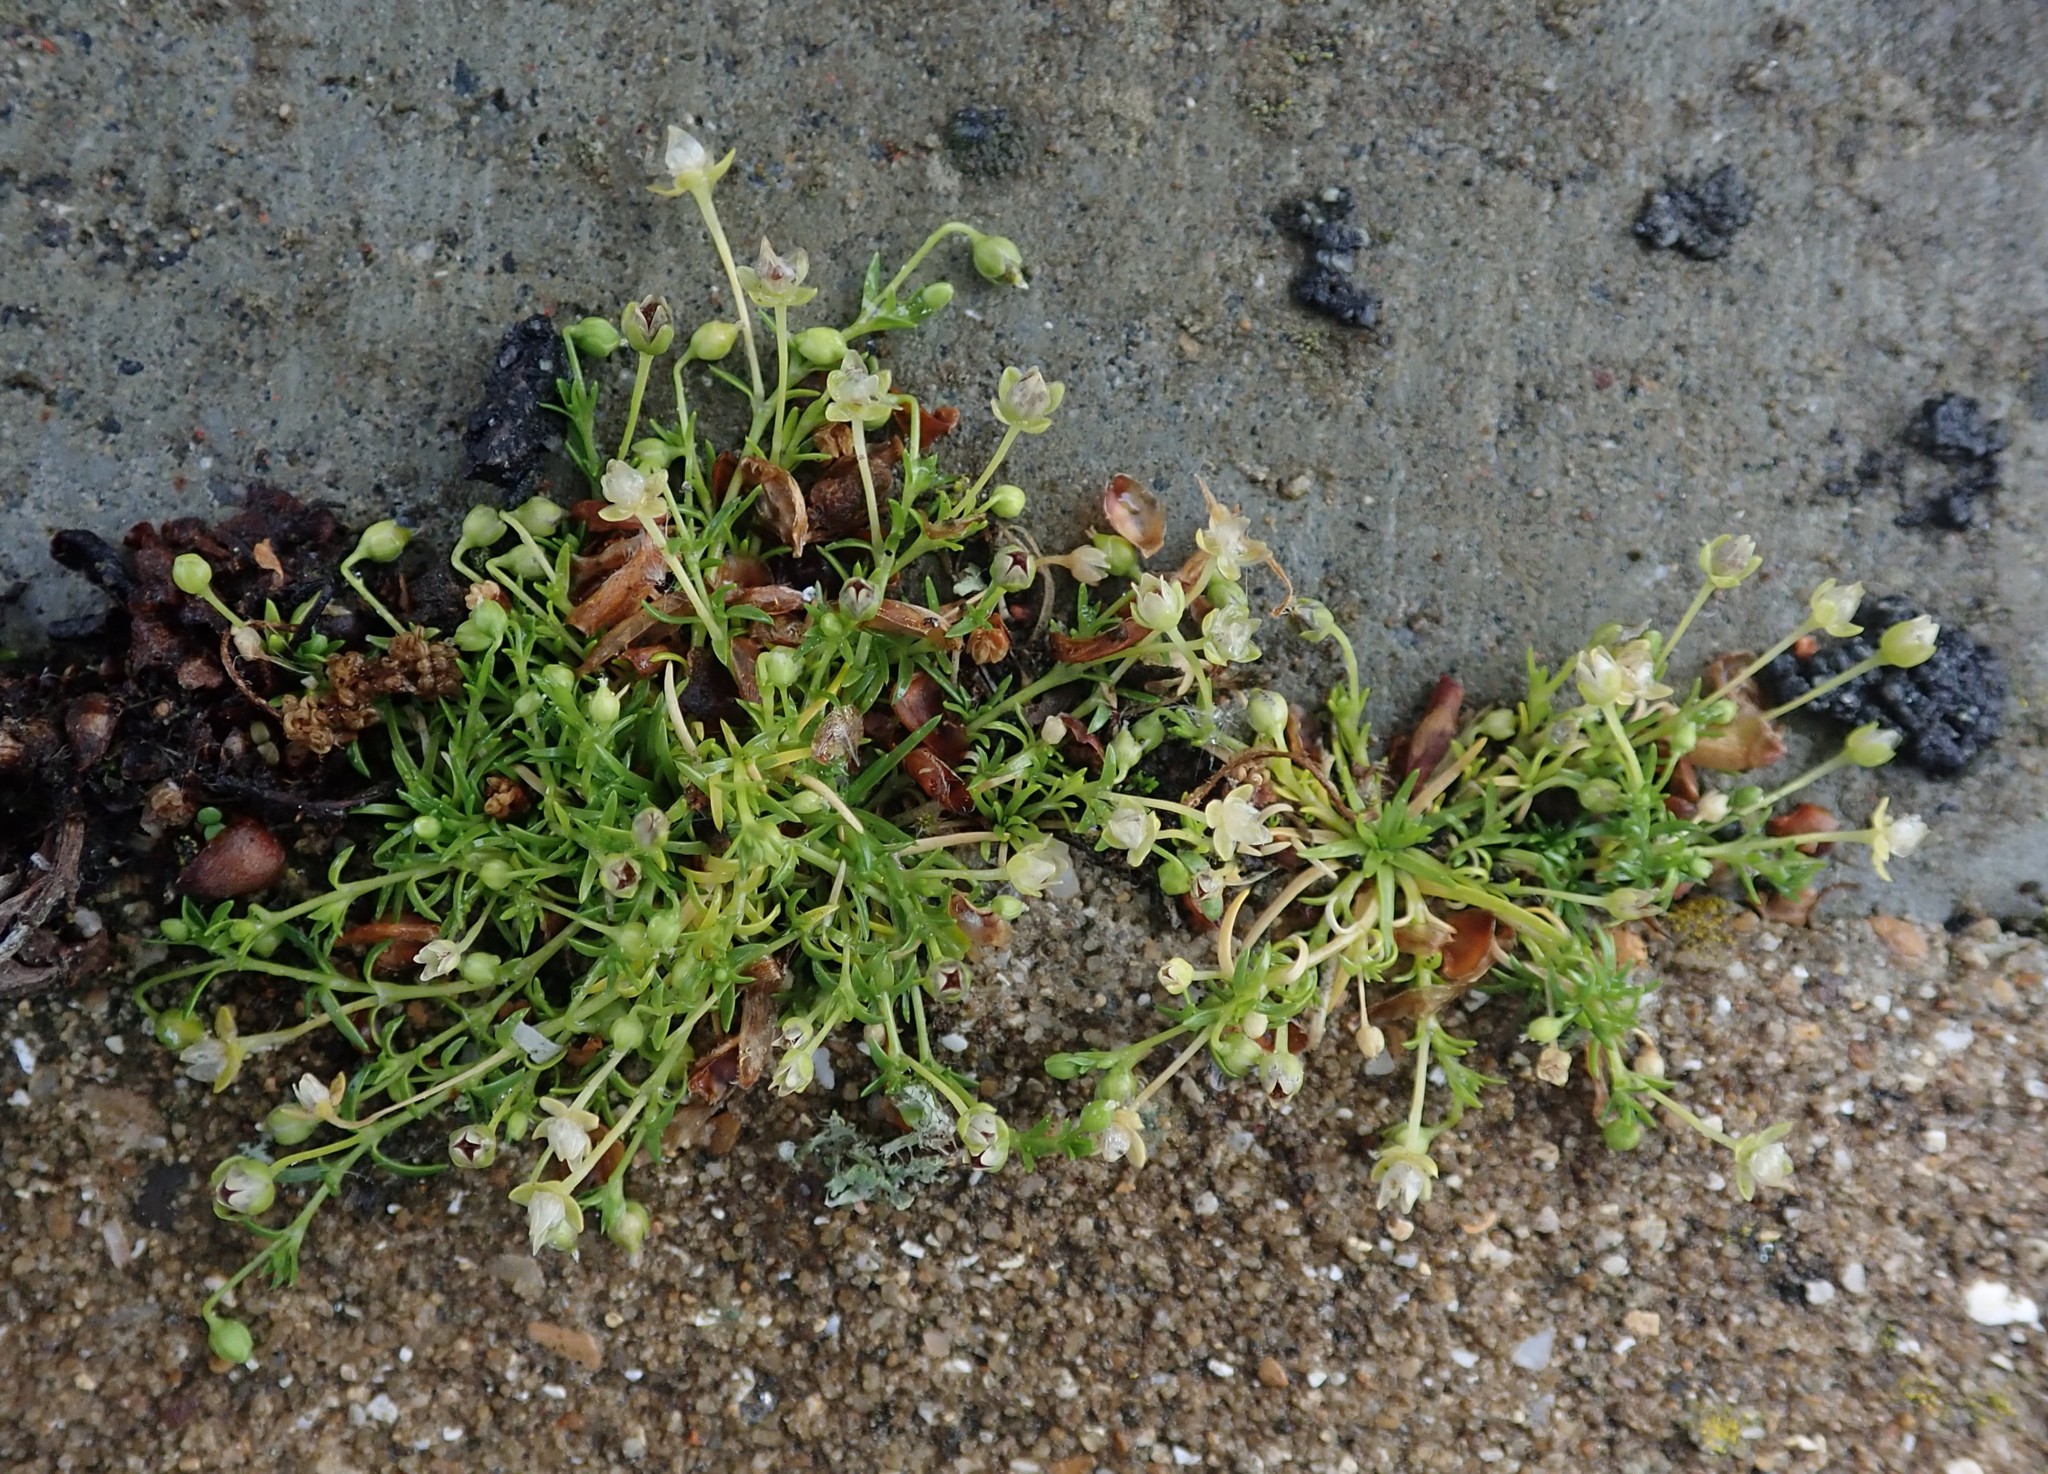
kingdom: Plantae
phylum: Tracheophyta
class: Magnoliopsida
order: Caryophyllales
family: Caryophyllaceae
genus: Sagina
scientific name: Sagina procumbens
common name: Procumbent pearlwort
